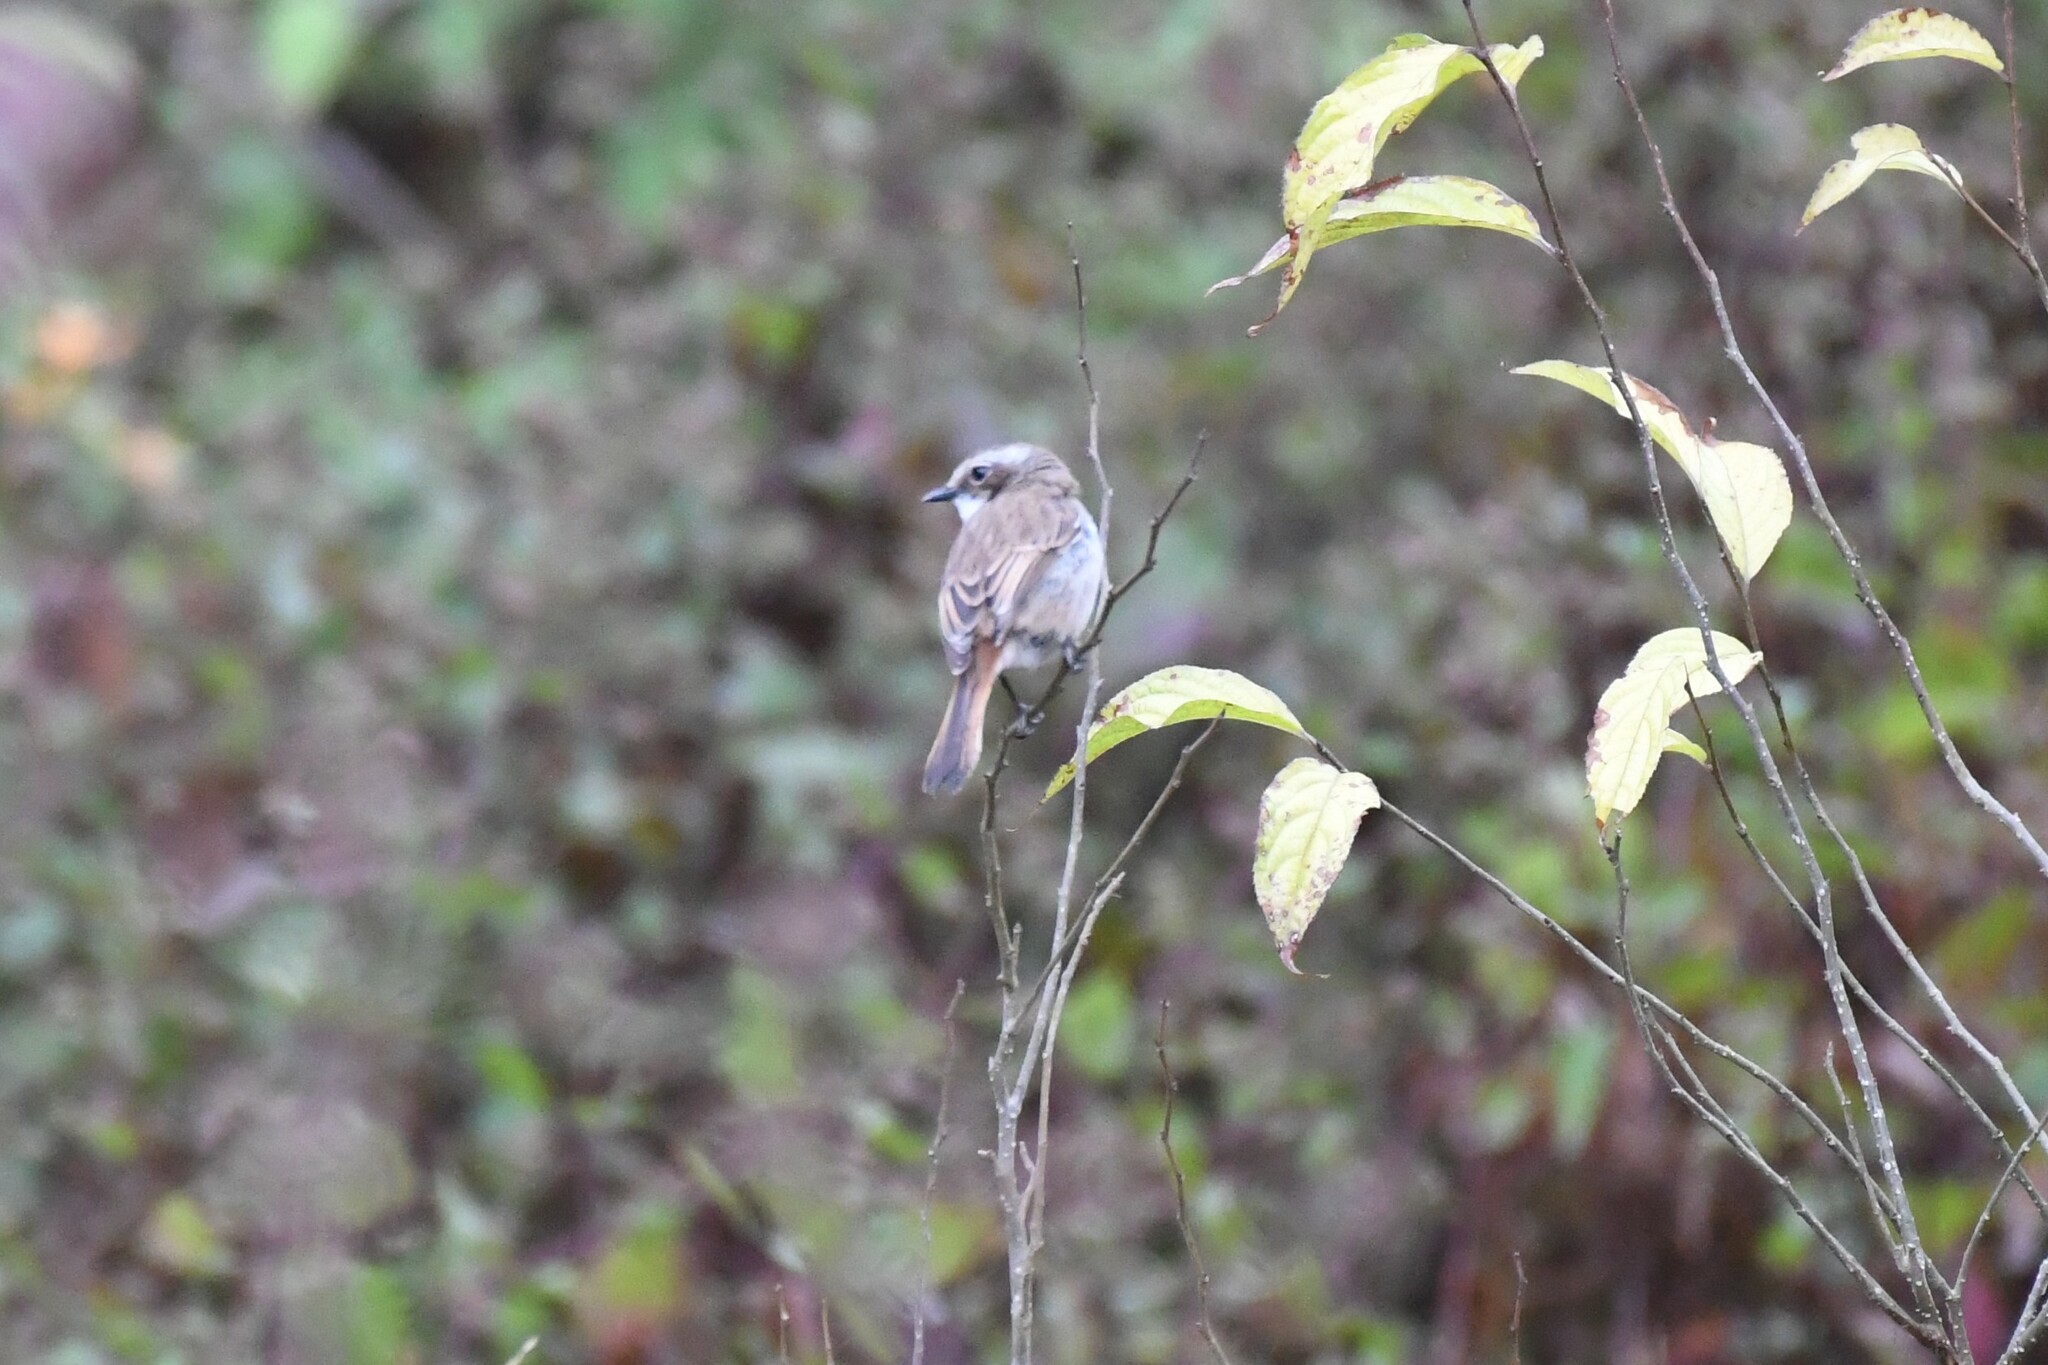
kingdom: Animalia
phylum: Chordata
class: Aves
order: Passeriformes
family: Muscicapidae
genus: Saxicola
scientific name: Saxicola ferreus
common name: Grey bush chat
